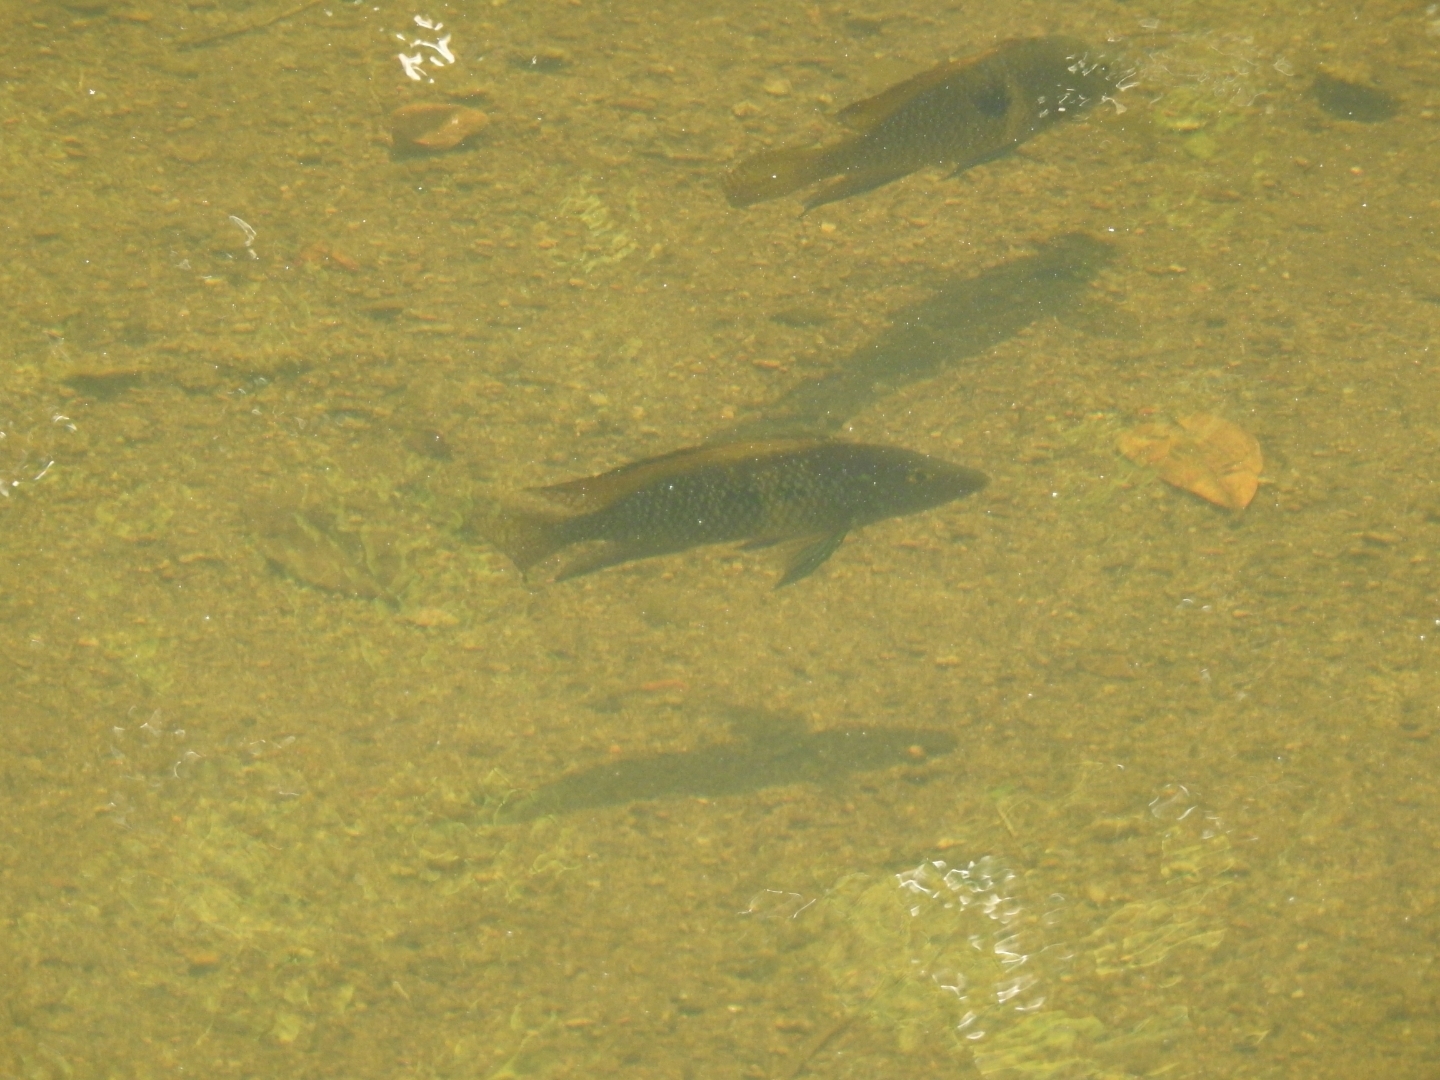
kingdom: Animalia
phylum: Chordata
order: Perciformes
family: Cichlidae
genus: Geophagus
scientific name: Geophagus brasiliensis
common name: Braziliensis
